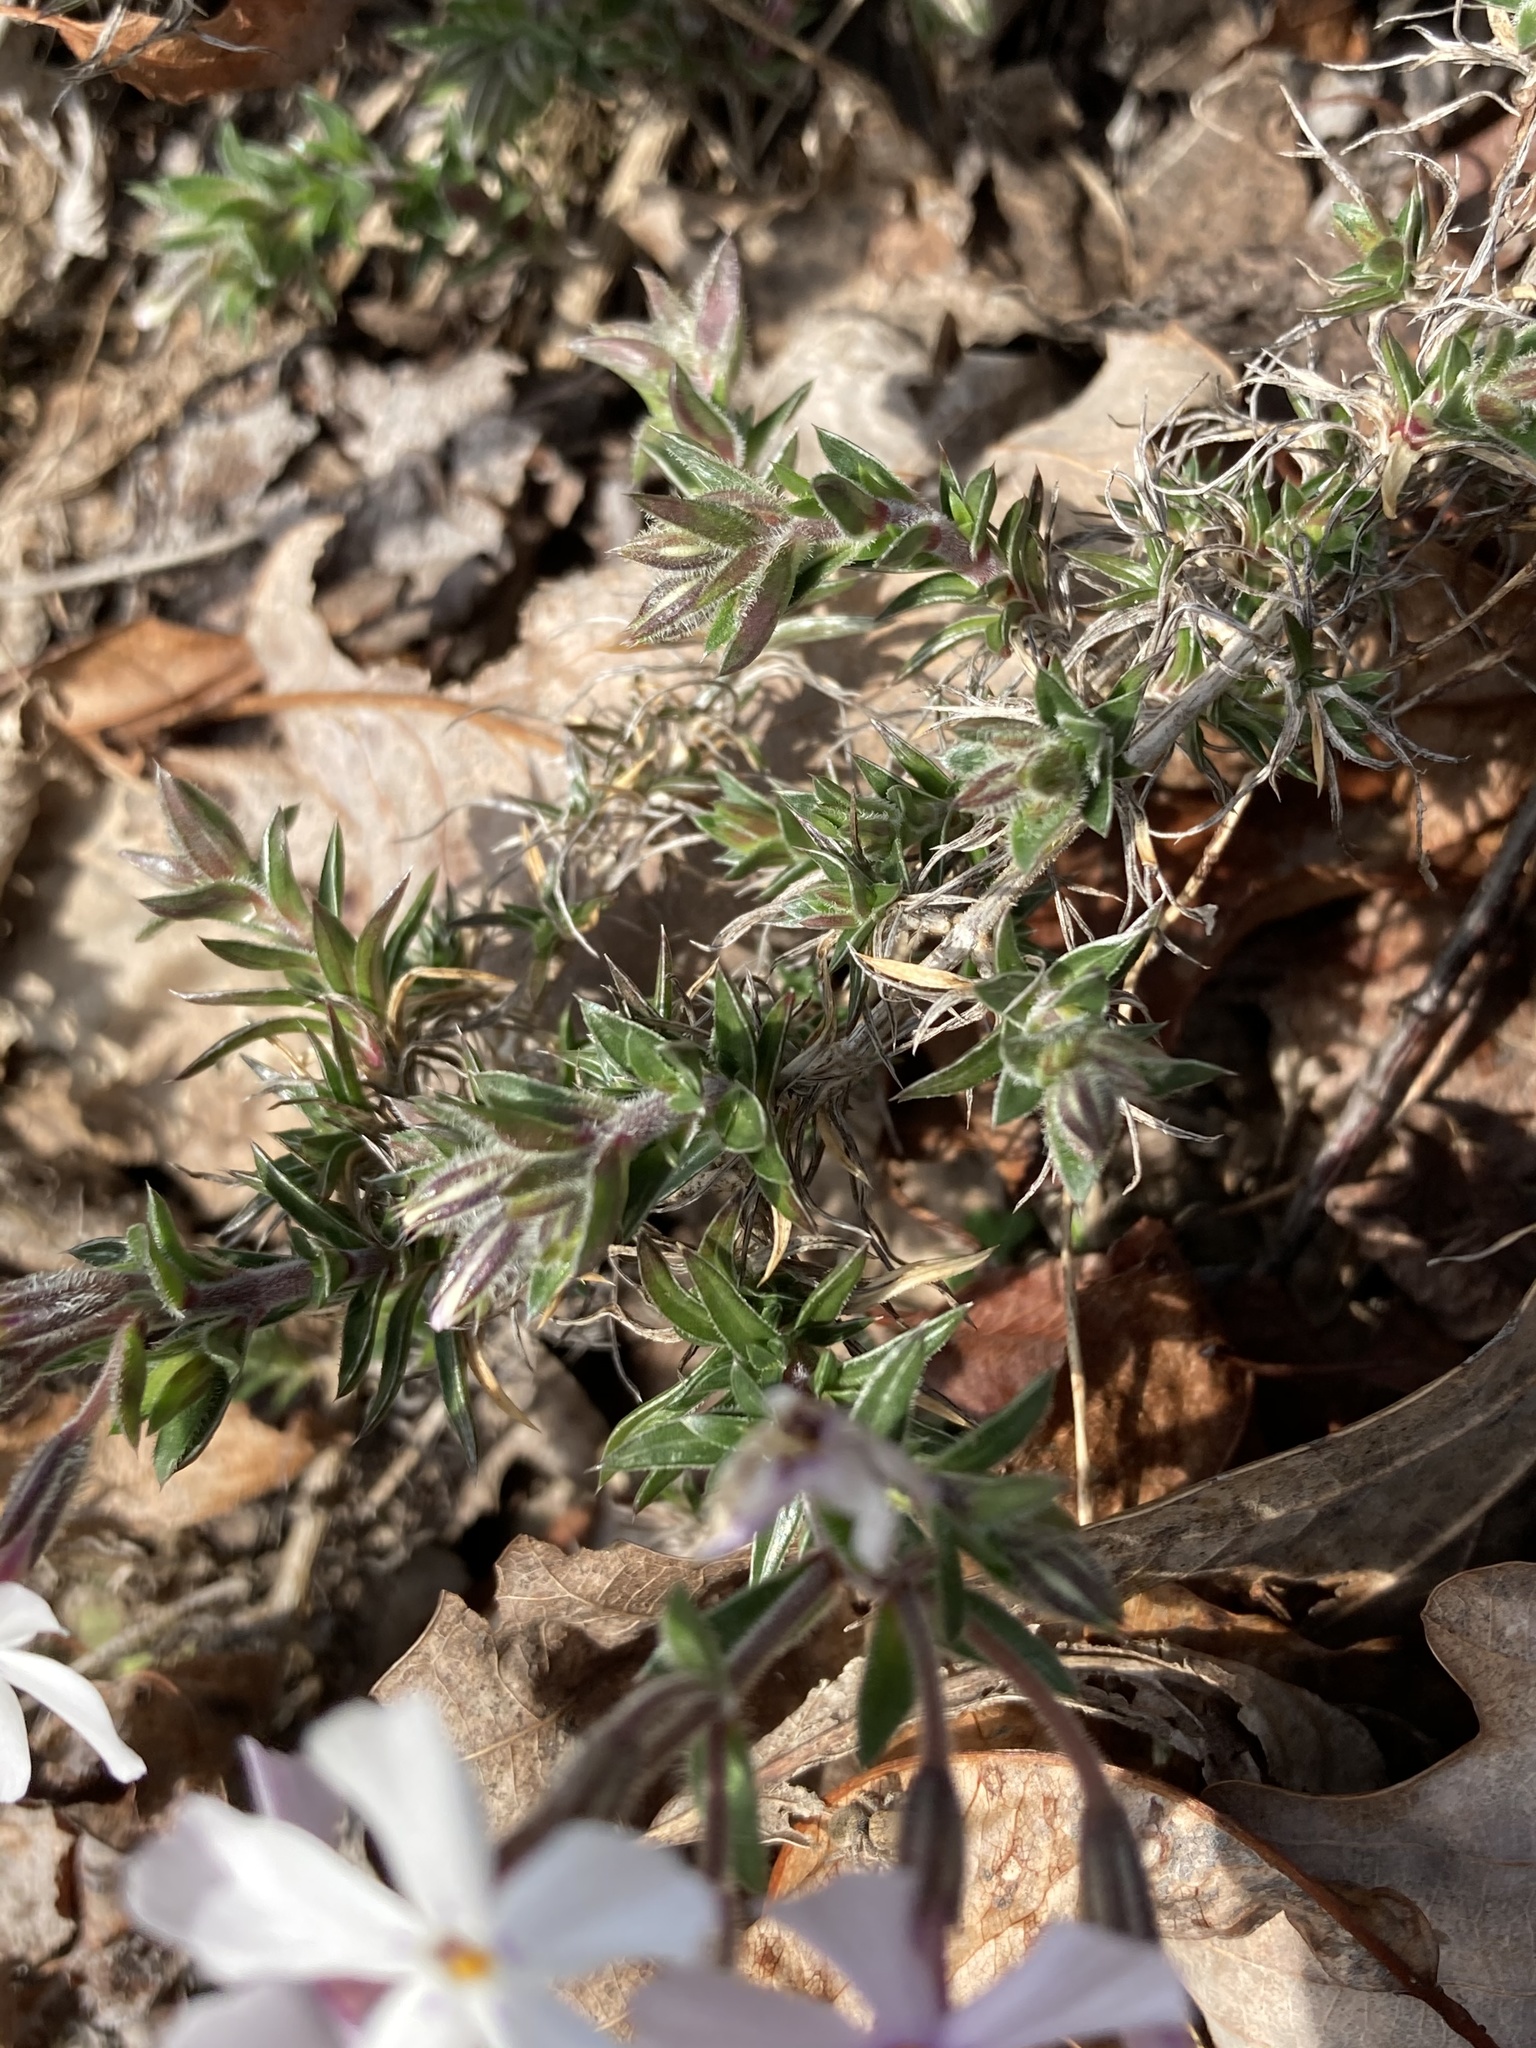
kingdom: Plantae
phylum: Tracheophyta
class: Magnoliopsida
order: Ericales
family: Polemoniaceae
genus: Phlox
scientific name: Phlox subulata
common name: Moss phlox
